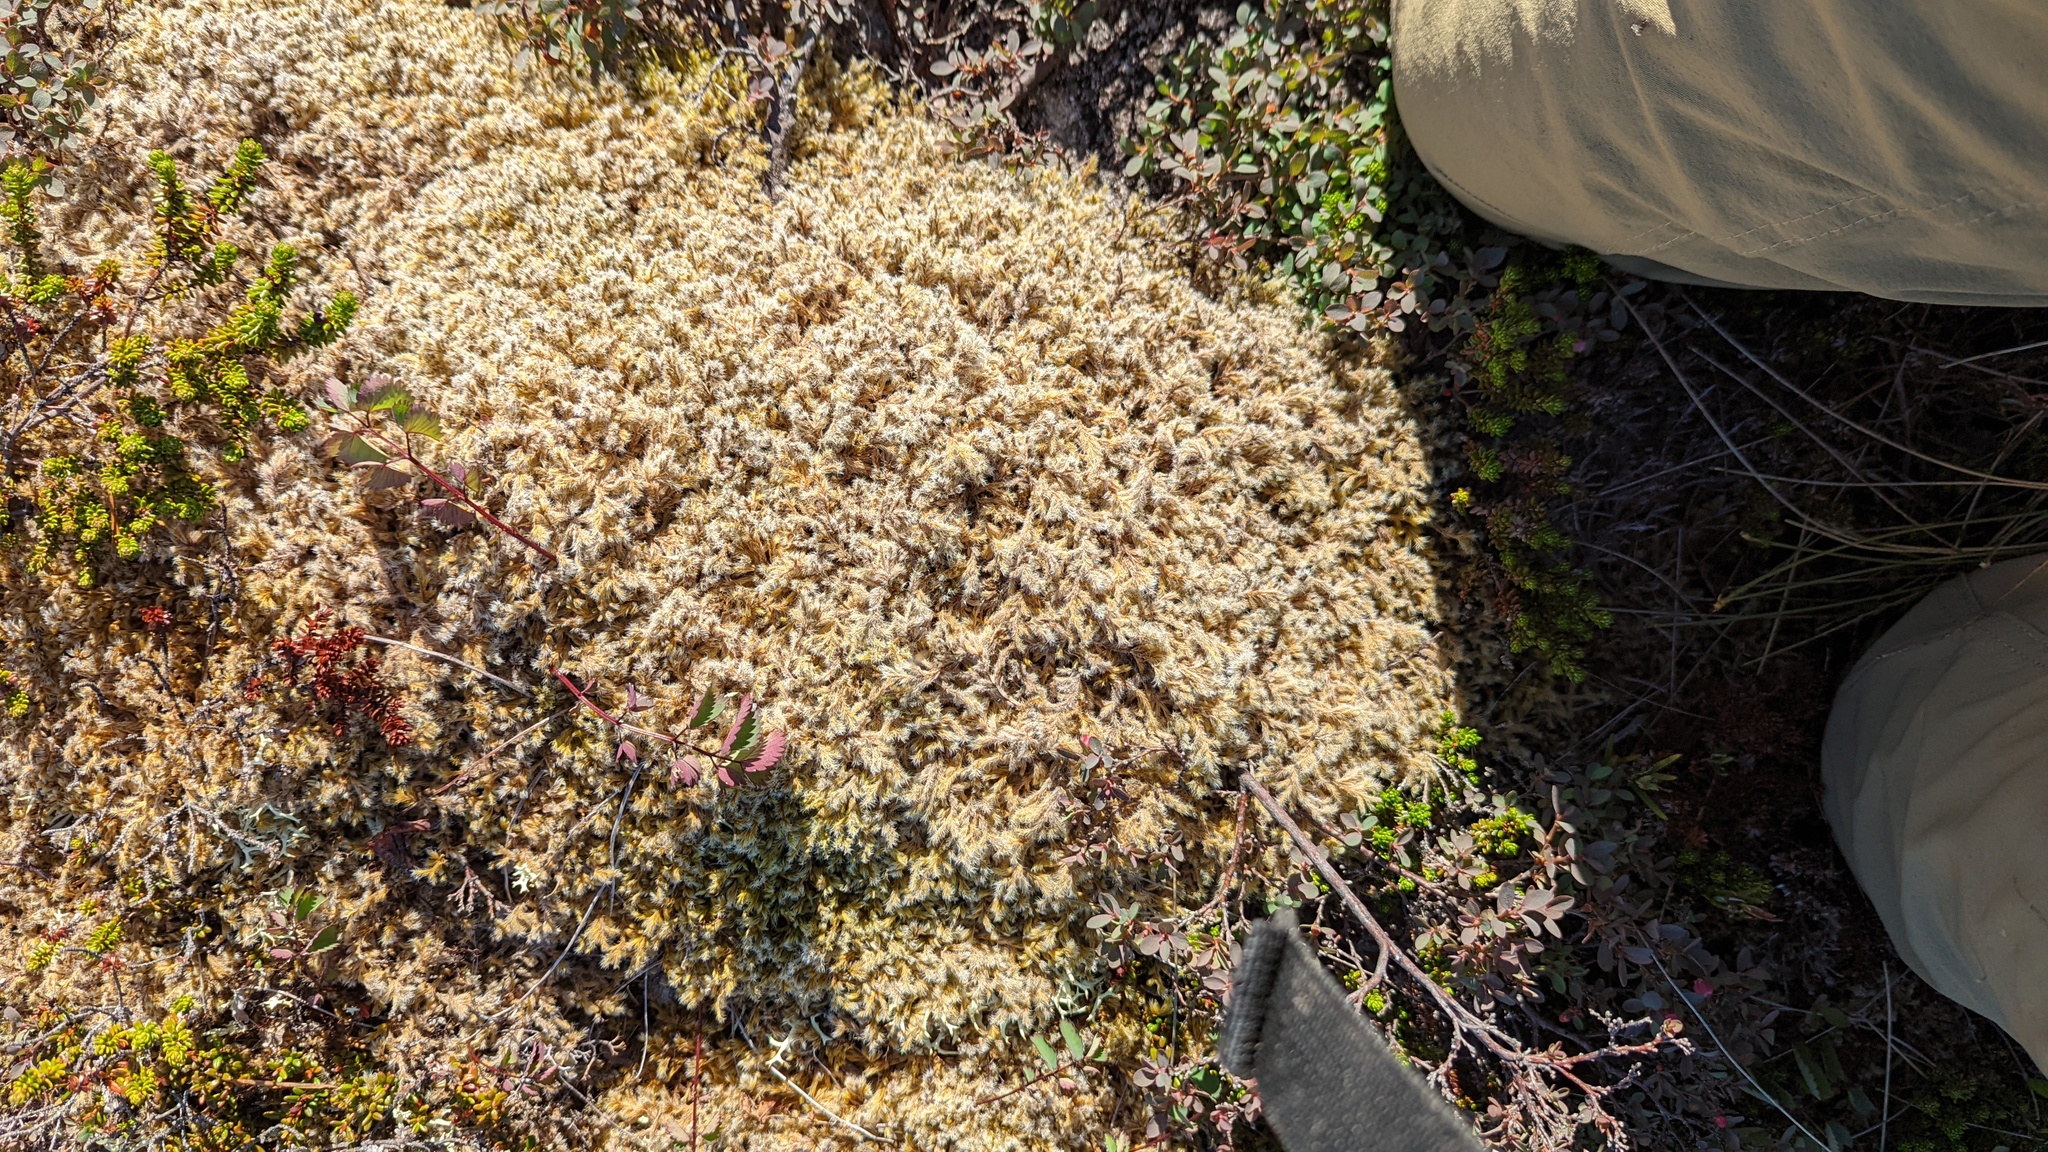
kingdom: Plantae
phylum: Bryophyta
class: Bryopsida
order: Grimmiales
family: Grimmiaceae
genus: Racomitrium
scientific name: Racomitrium lanuginosum
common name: Hoary rock moss
